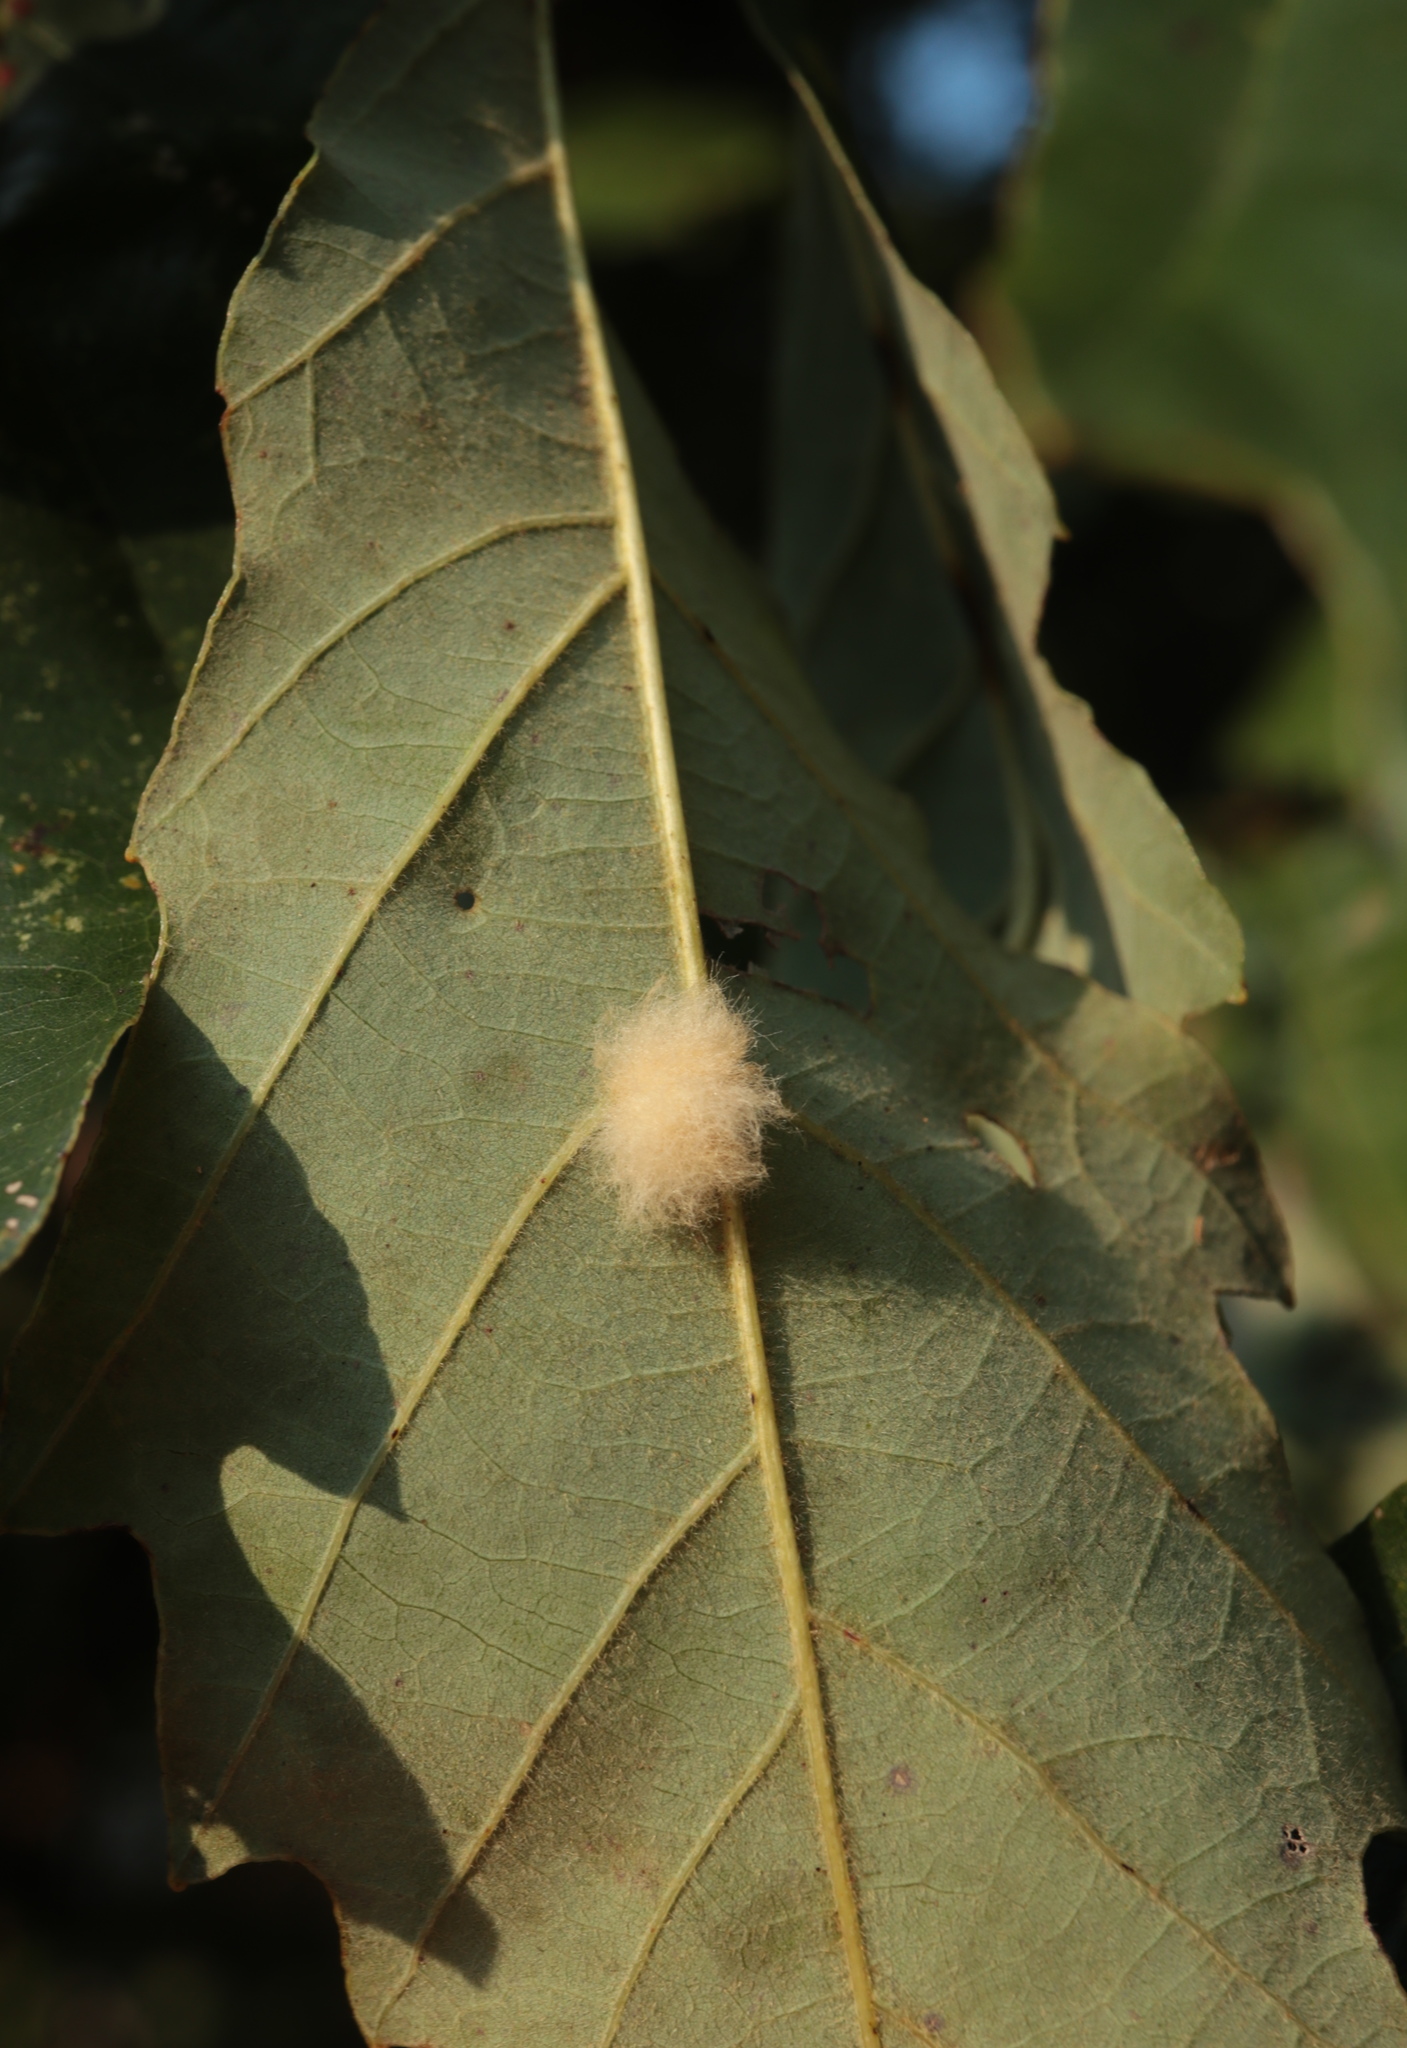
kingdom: Animalia
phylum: Arthropoda
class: Insecta
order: Hymenoptera
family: Cynipidae
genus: Andricus
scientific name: Andricus Druon ignotum
